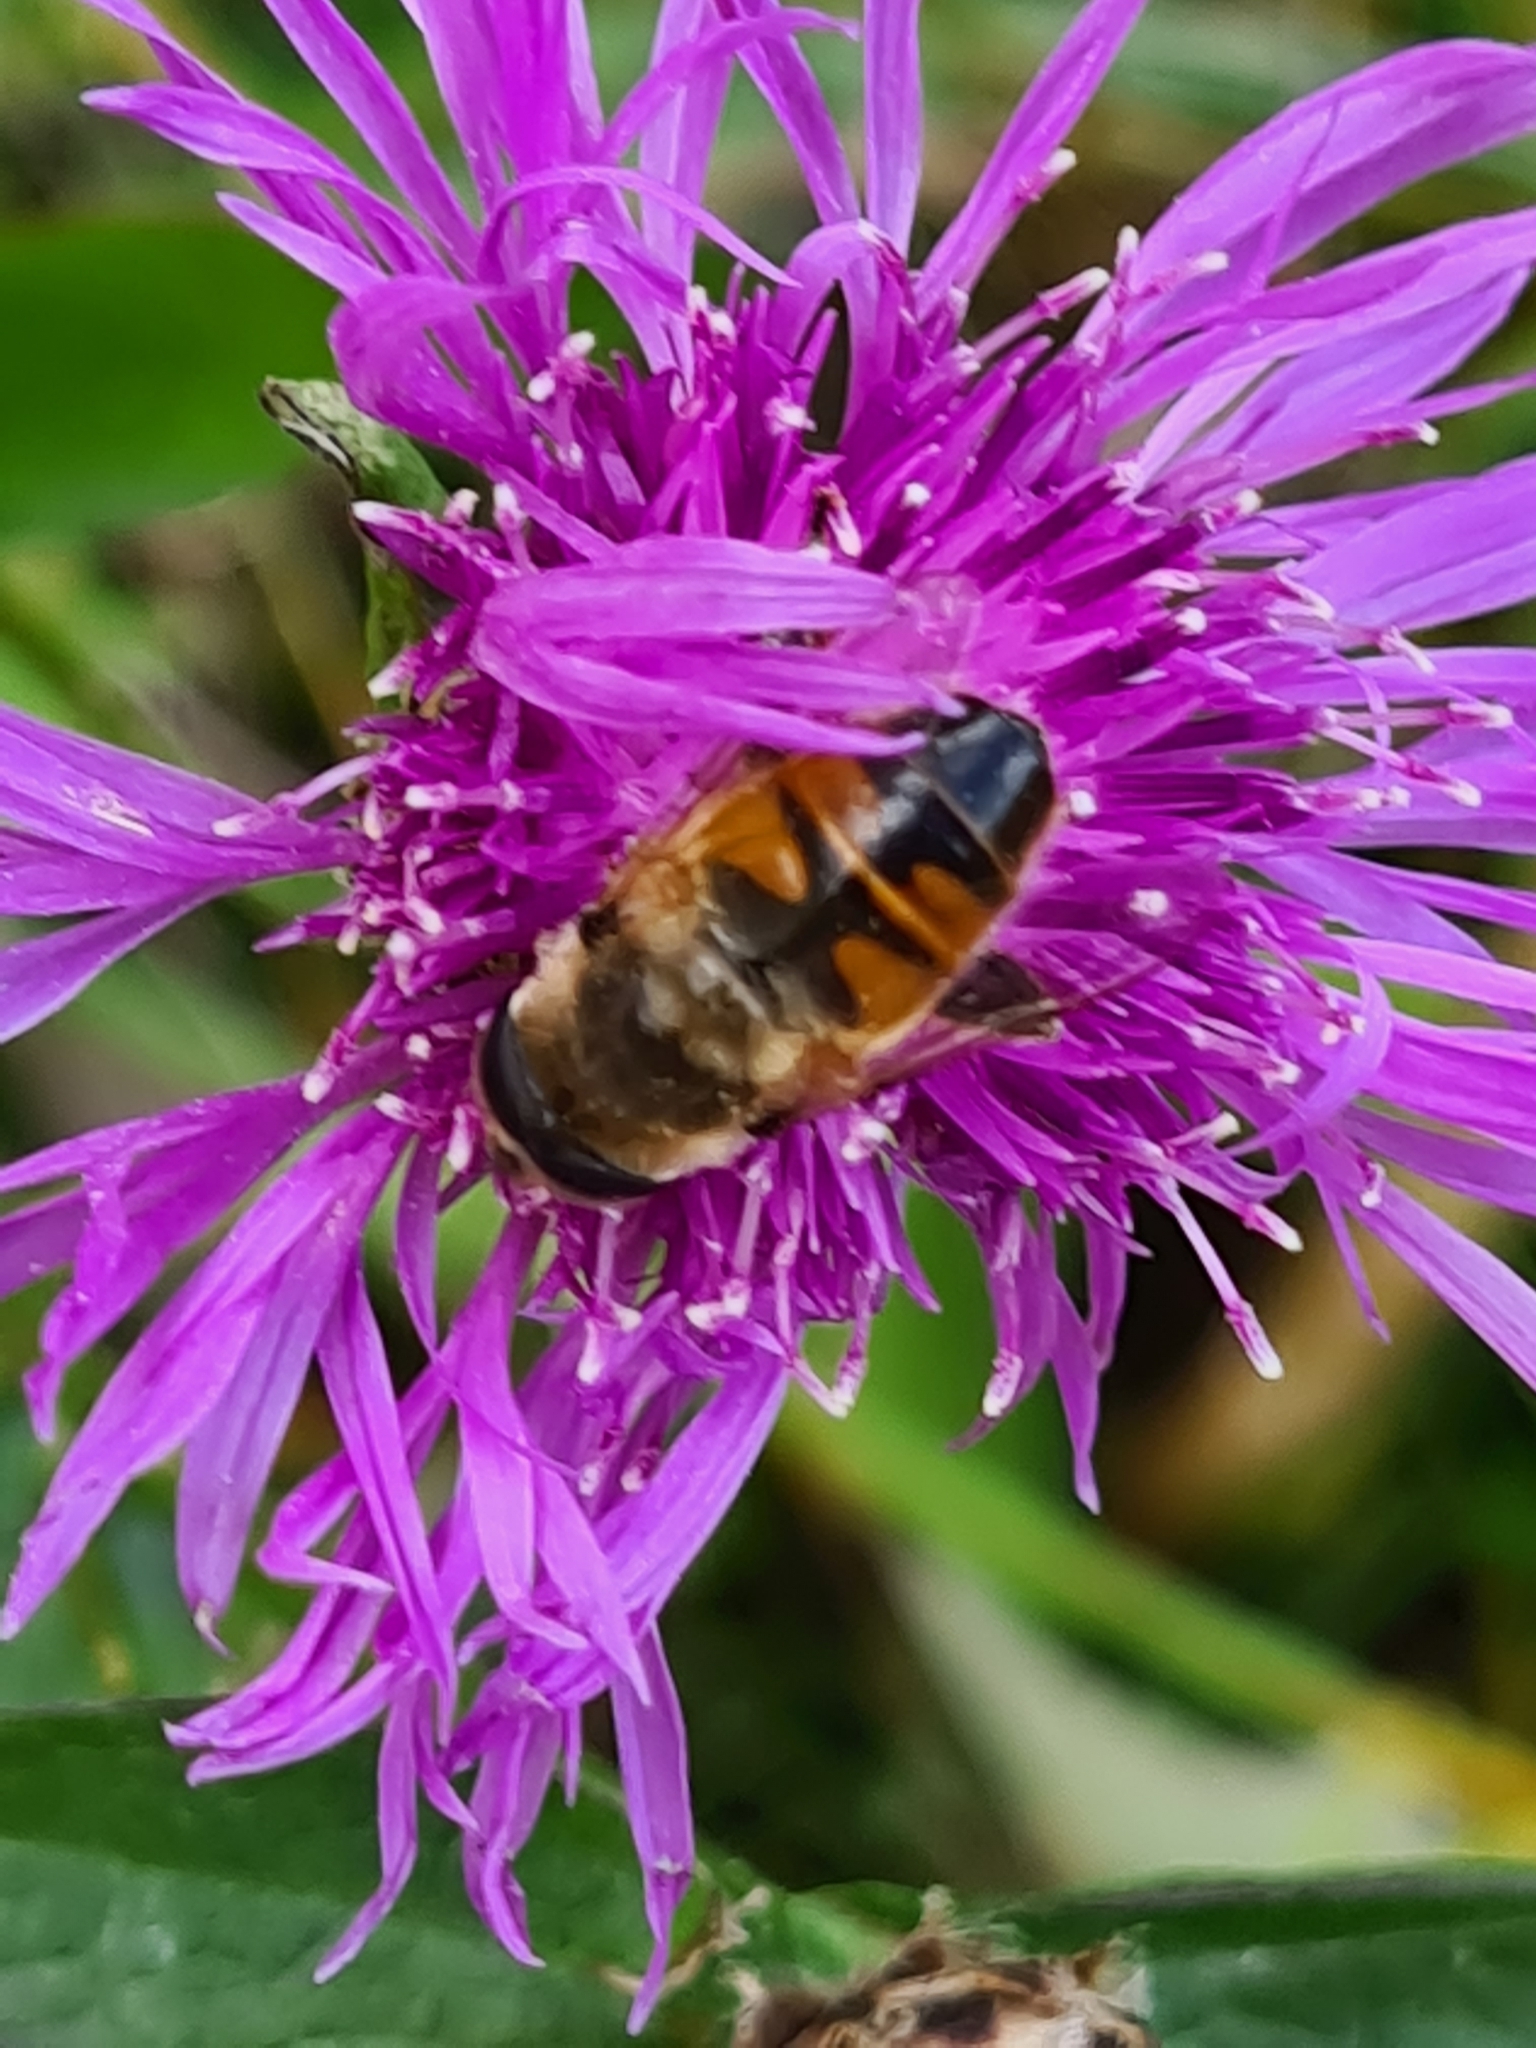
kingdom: Animalia
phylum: Arthropoda
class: Insecta
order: Diptera
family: Syrphidae
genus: Eristalis
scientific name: Eristalis tenax
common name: Drone fly
